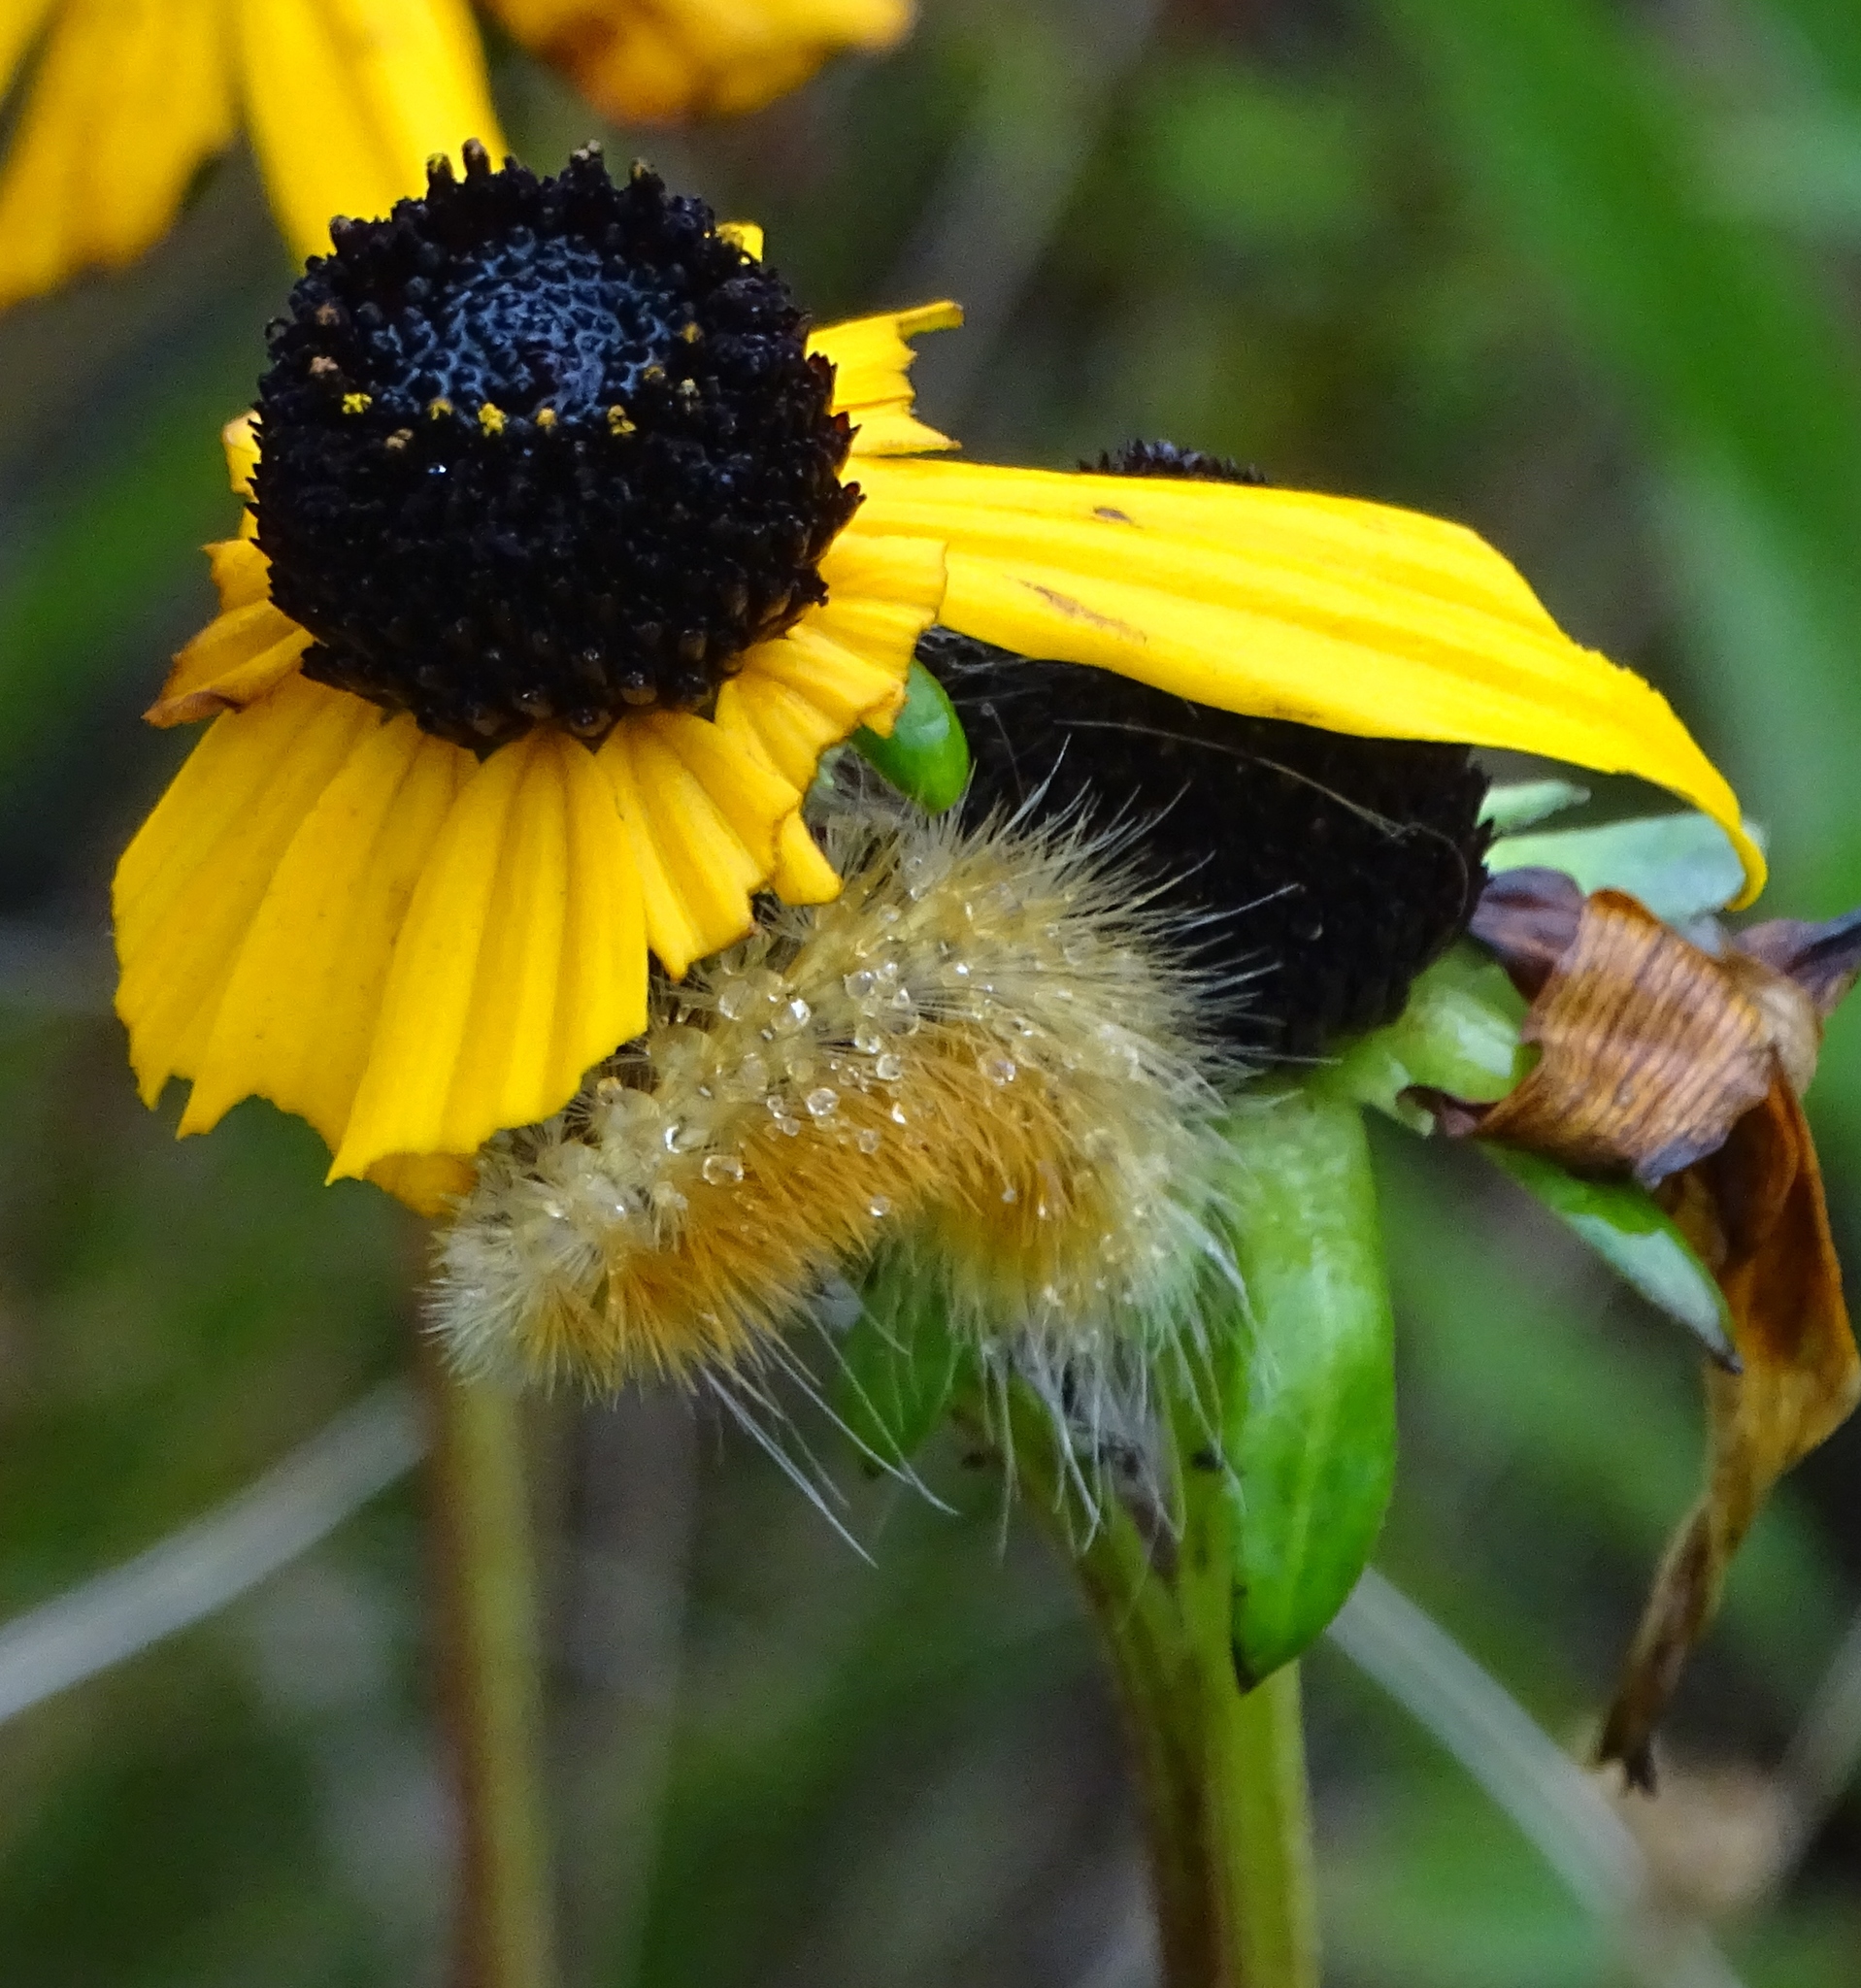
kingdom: Animalia
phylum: Arthropoda
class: Insecta
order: Lepidoptera
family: Erebidae
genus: Spilosoma
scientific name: Spilosoma virginica
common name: Virginia tiger moth
